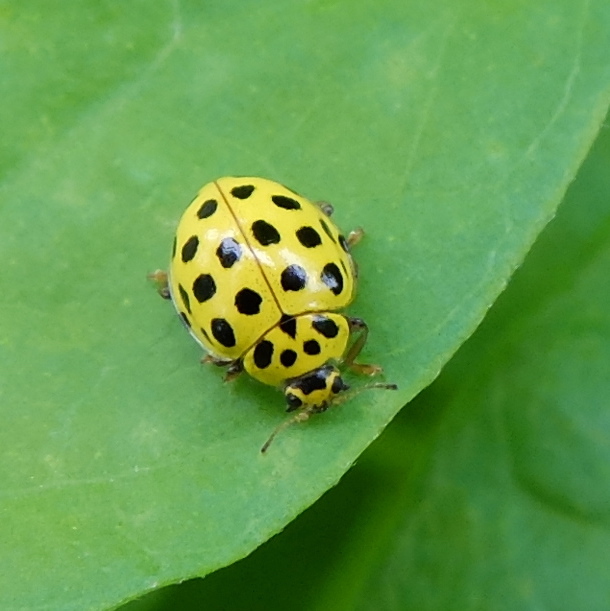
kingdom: Animalia
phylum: Arthropoda
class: Insecta
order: Coleoptera
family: Coccinellidae
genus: Psyllobora
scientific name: Psyllobora vigintiduopunctata
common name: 22-spot ladybird
